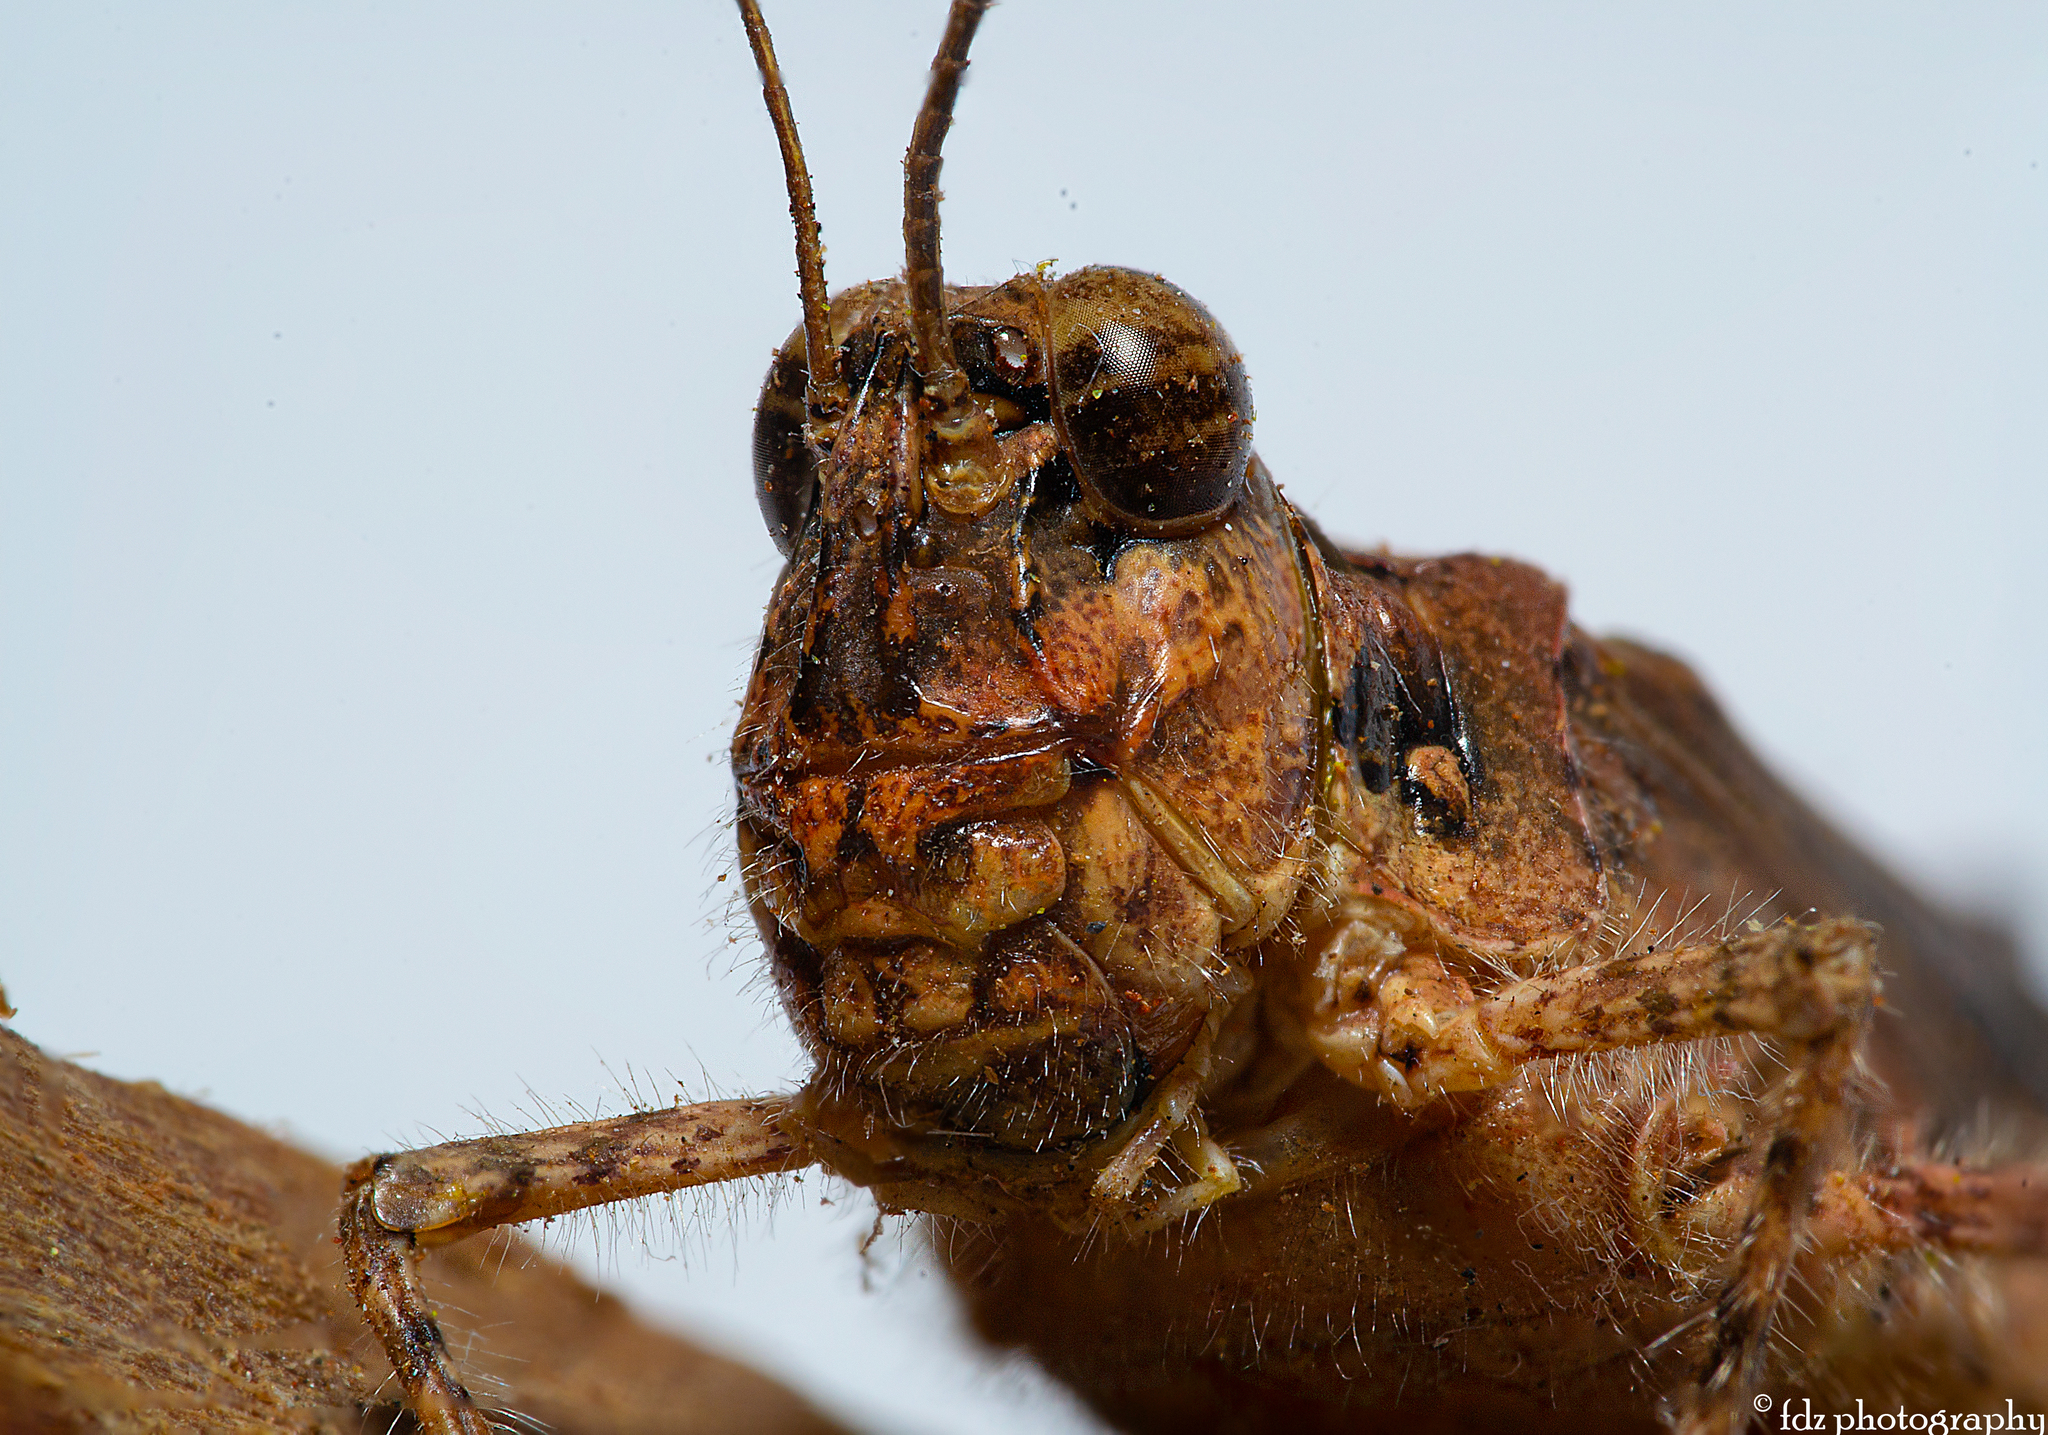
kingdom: Animalia
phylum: Arthropoda
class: Insecta
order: Orthoptera
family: Acrididae
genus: Acrotylus
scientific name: Acrotylus patruelis
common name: Slender burrowing grasshopper
